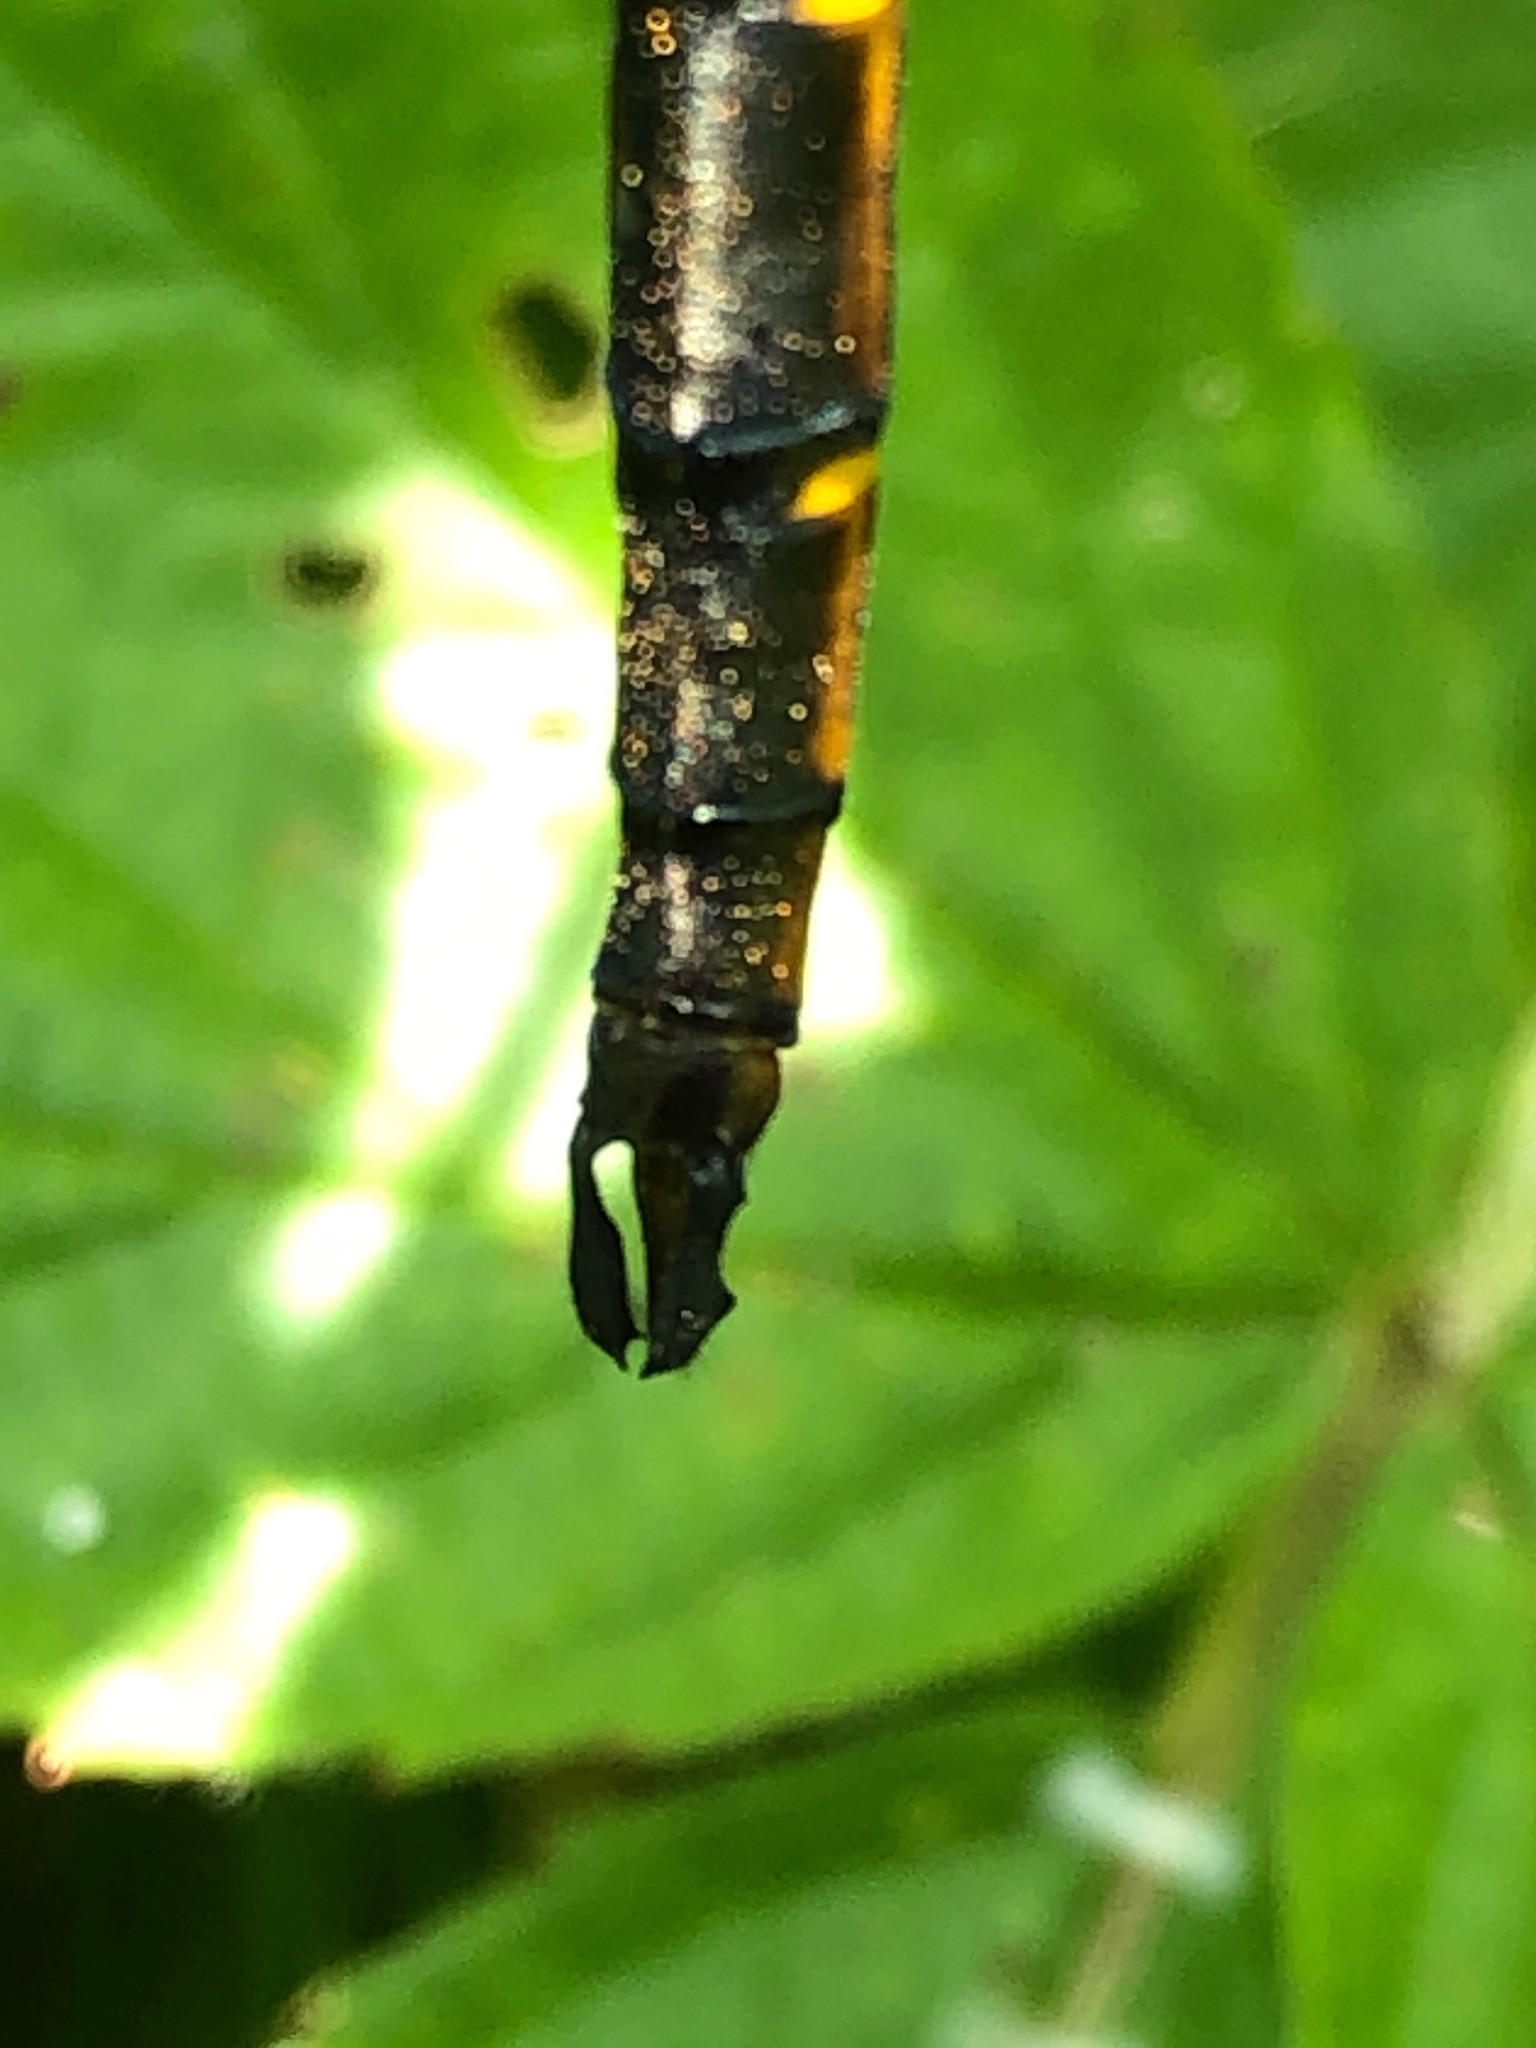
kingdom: Animalia
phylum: Arthropoda
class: Insecta
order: Odonata
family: Corduliidae
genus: Somatochlora
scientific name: Somatochlora linearis
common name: Mocha emerald
